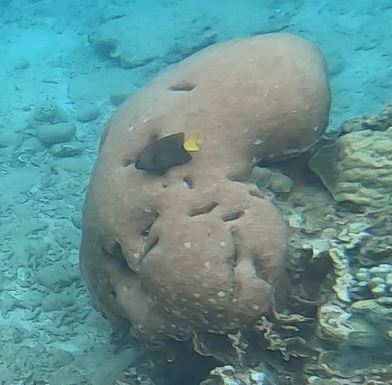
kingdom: Animalia
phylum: Chordata
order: Perciformes
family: Pomacentridae
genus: Microspathodon
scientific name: Microspathodon chrysurus
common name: Yellowtail damselfish
